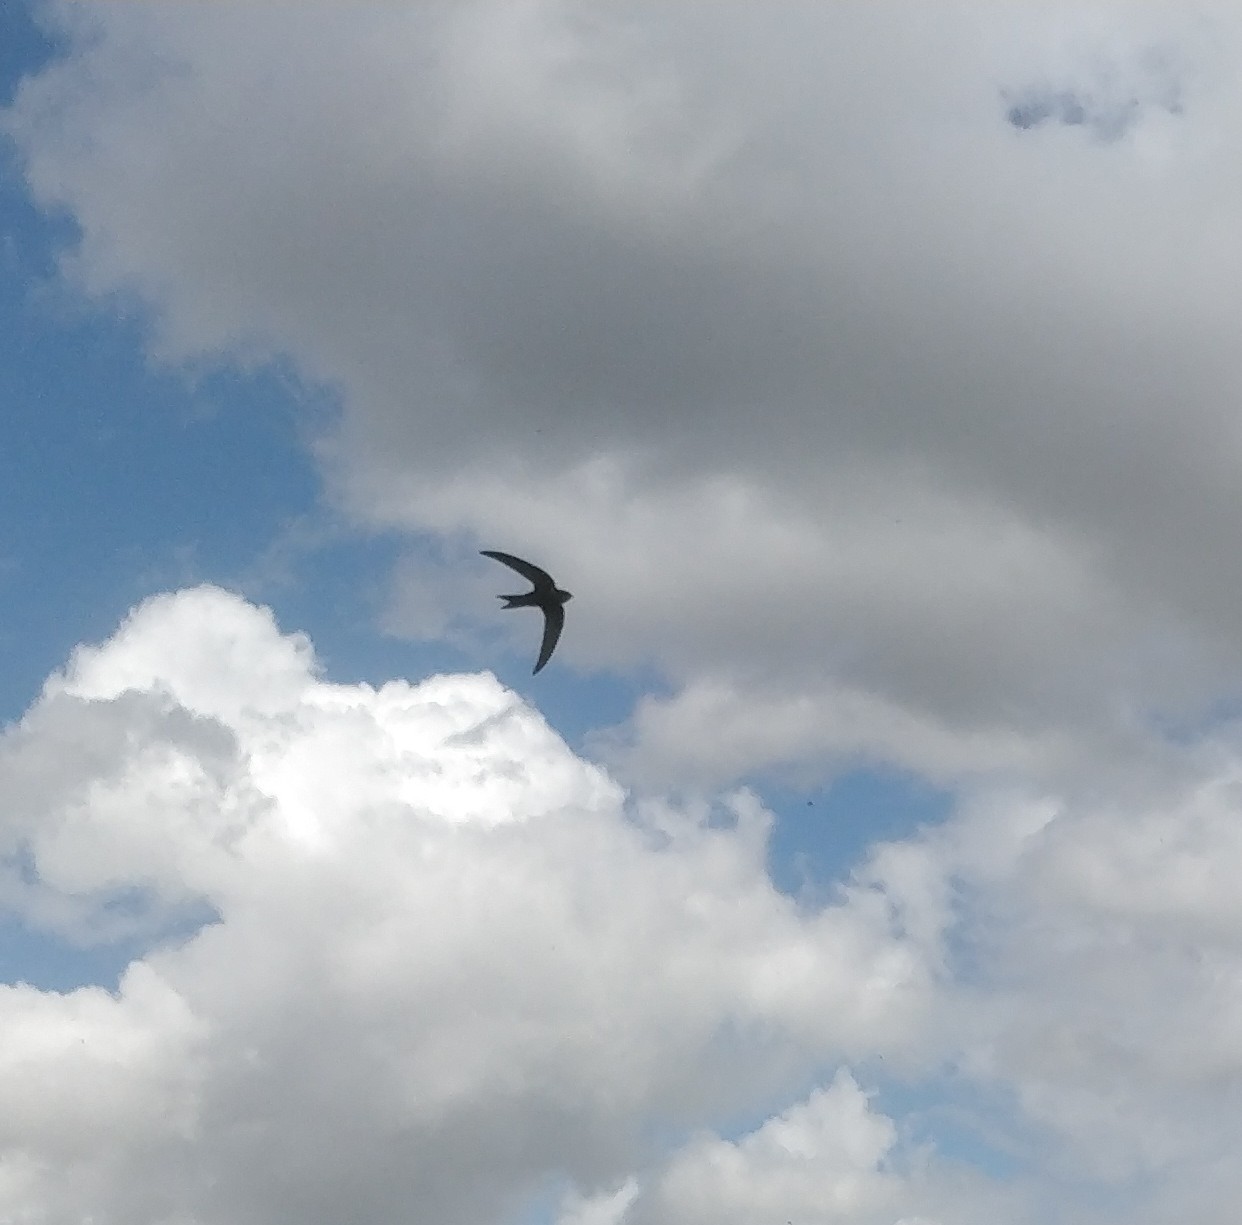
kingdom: Animalia
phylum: Chordata
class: Aves
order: Apodiformes
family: Apodidae
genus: Apus
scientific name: Apus apus
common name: Common swift
